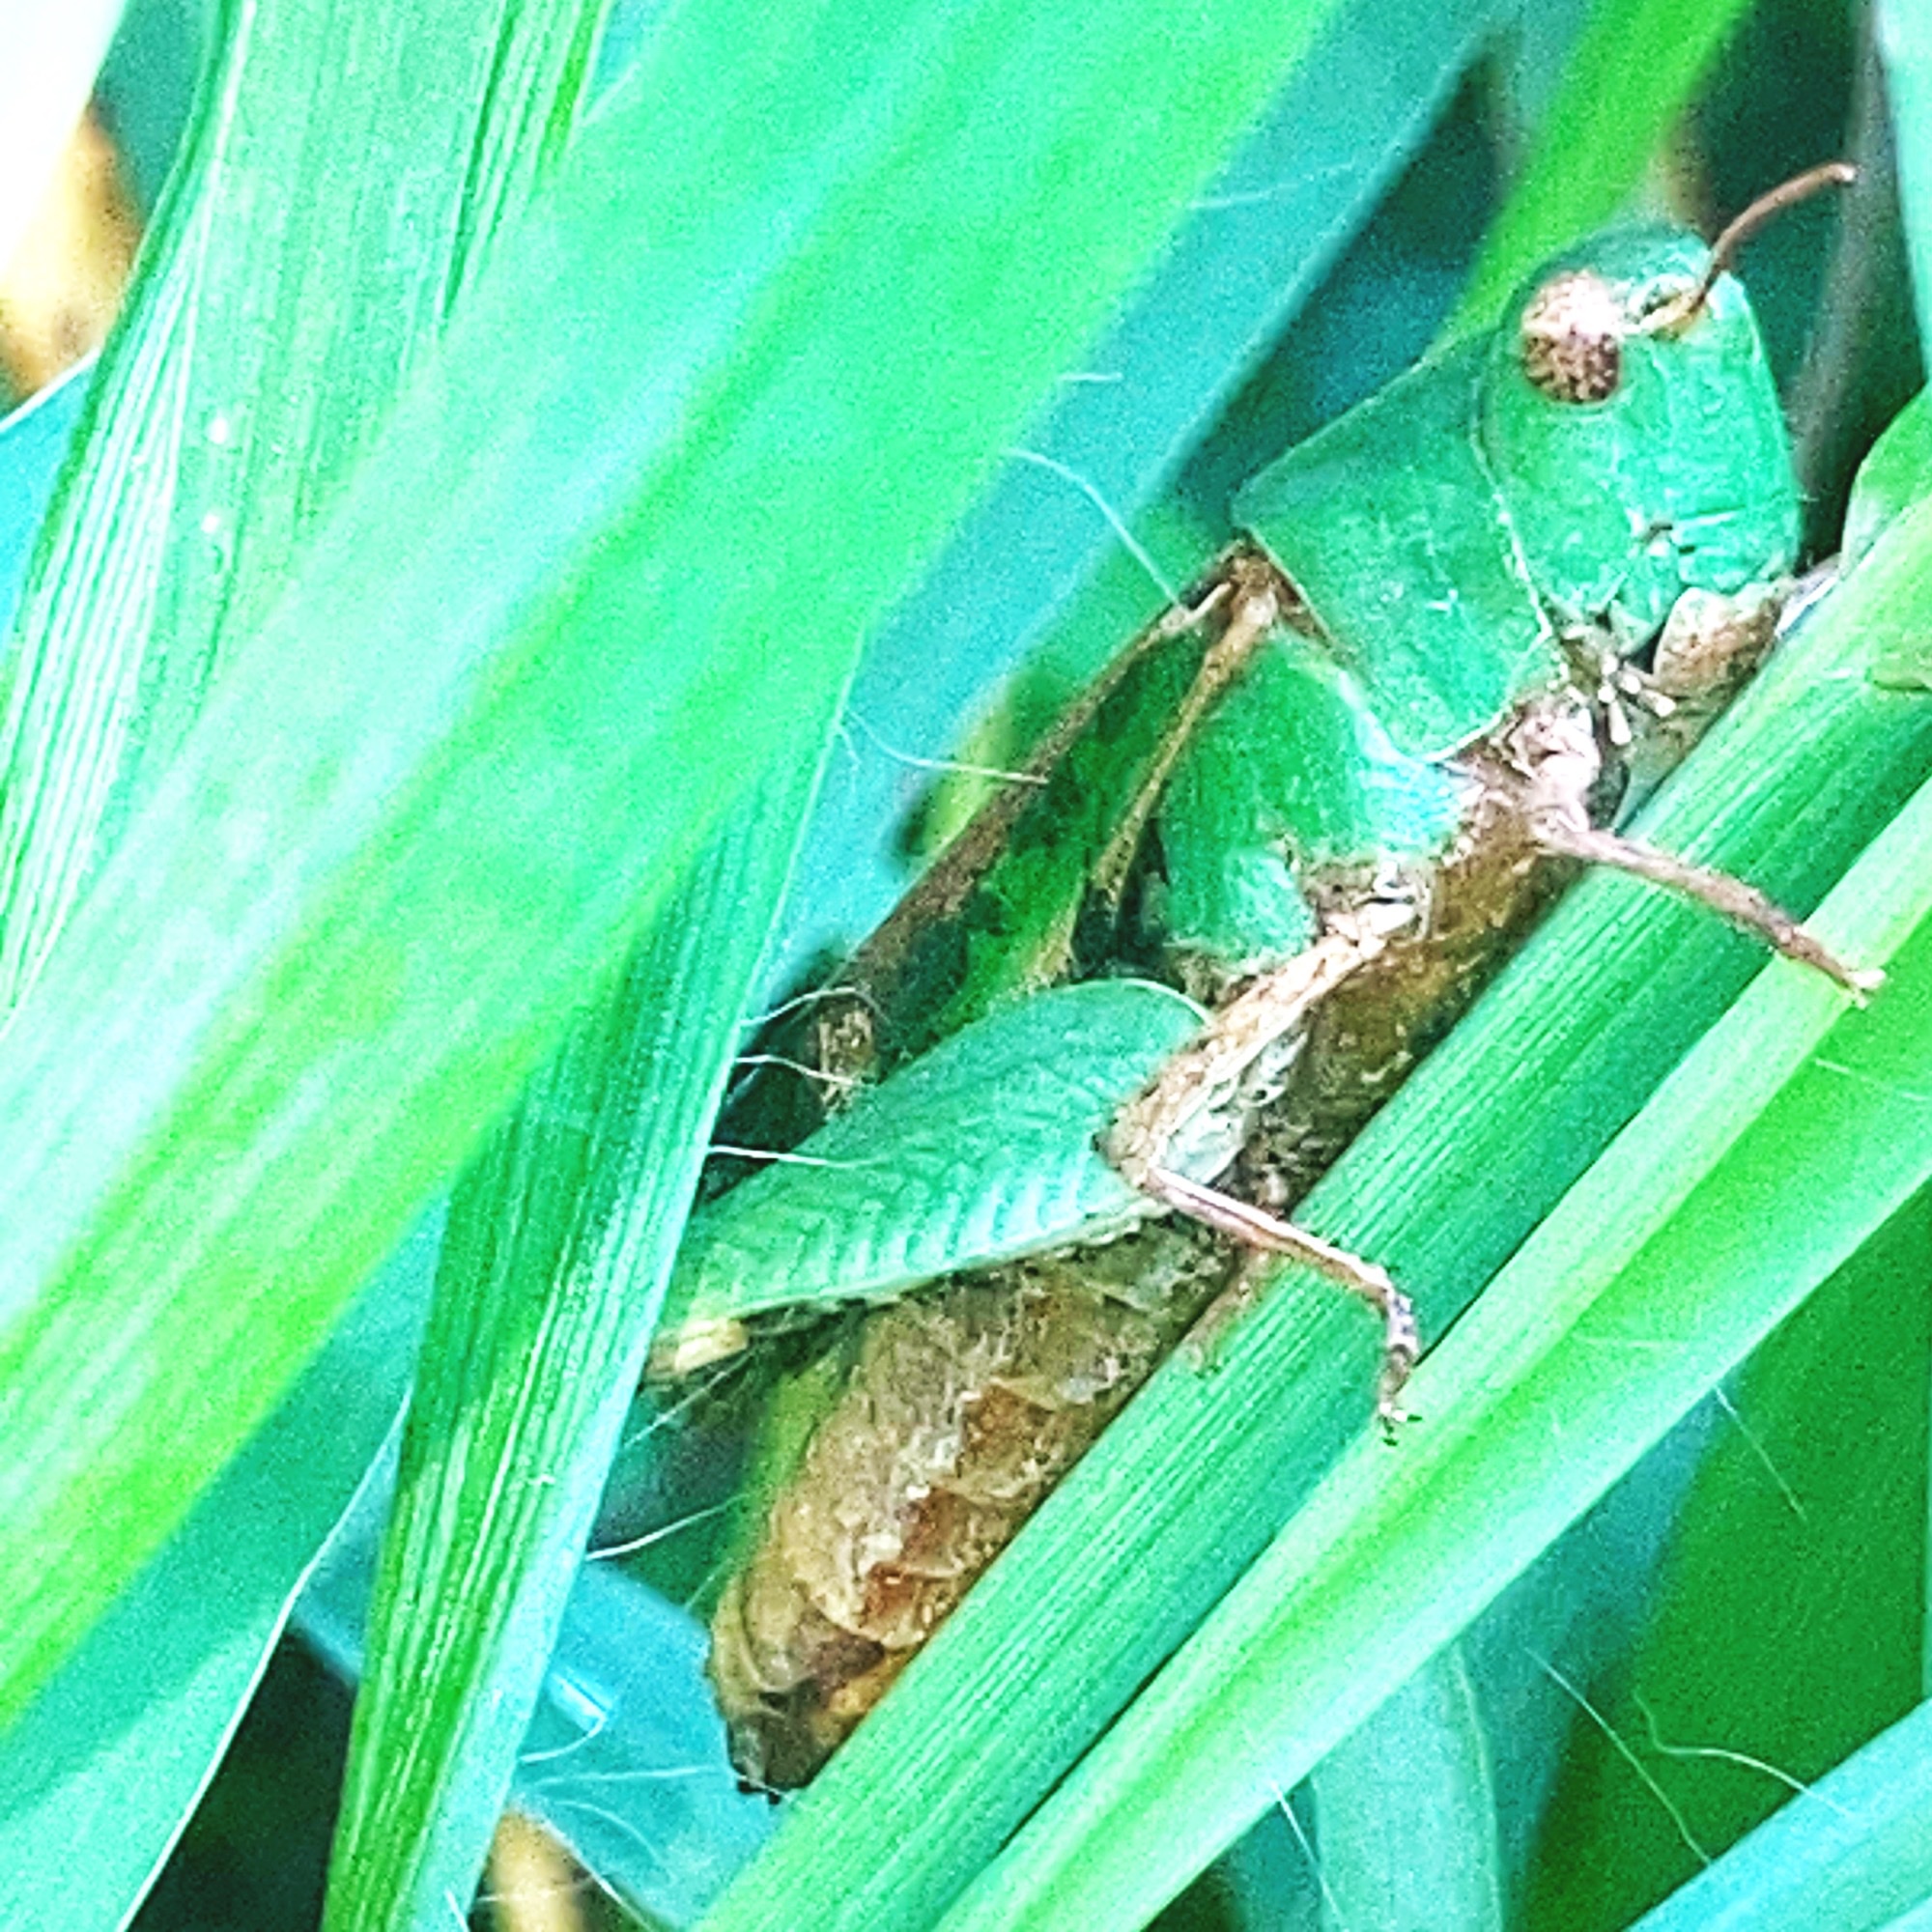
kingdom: Animalia
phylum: Arthropoda
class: Insecta
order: Orthoptera
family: Acrididae
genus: Chortophaga
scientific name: Chortophaga viridifasciata
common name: Green-striped grasshopper
